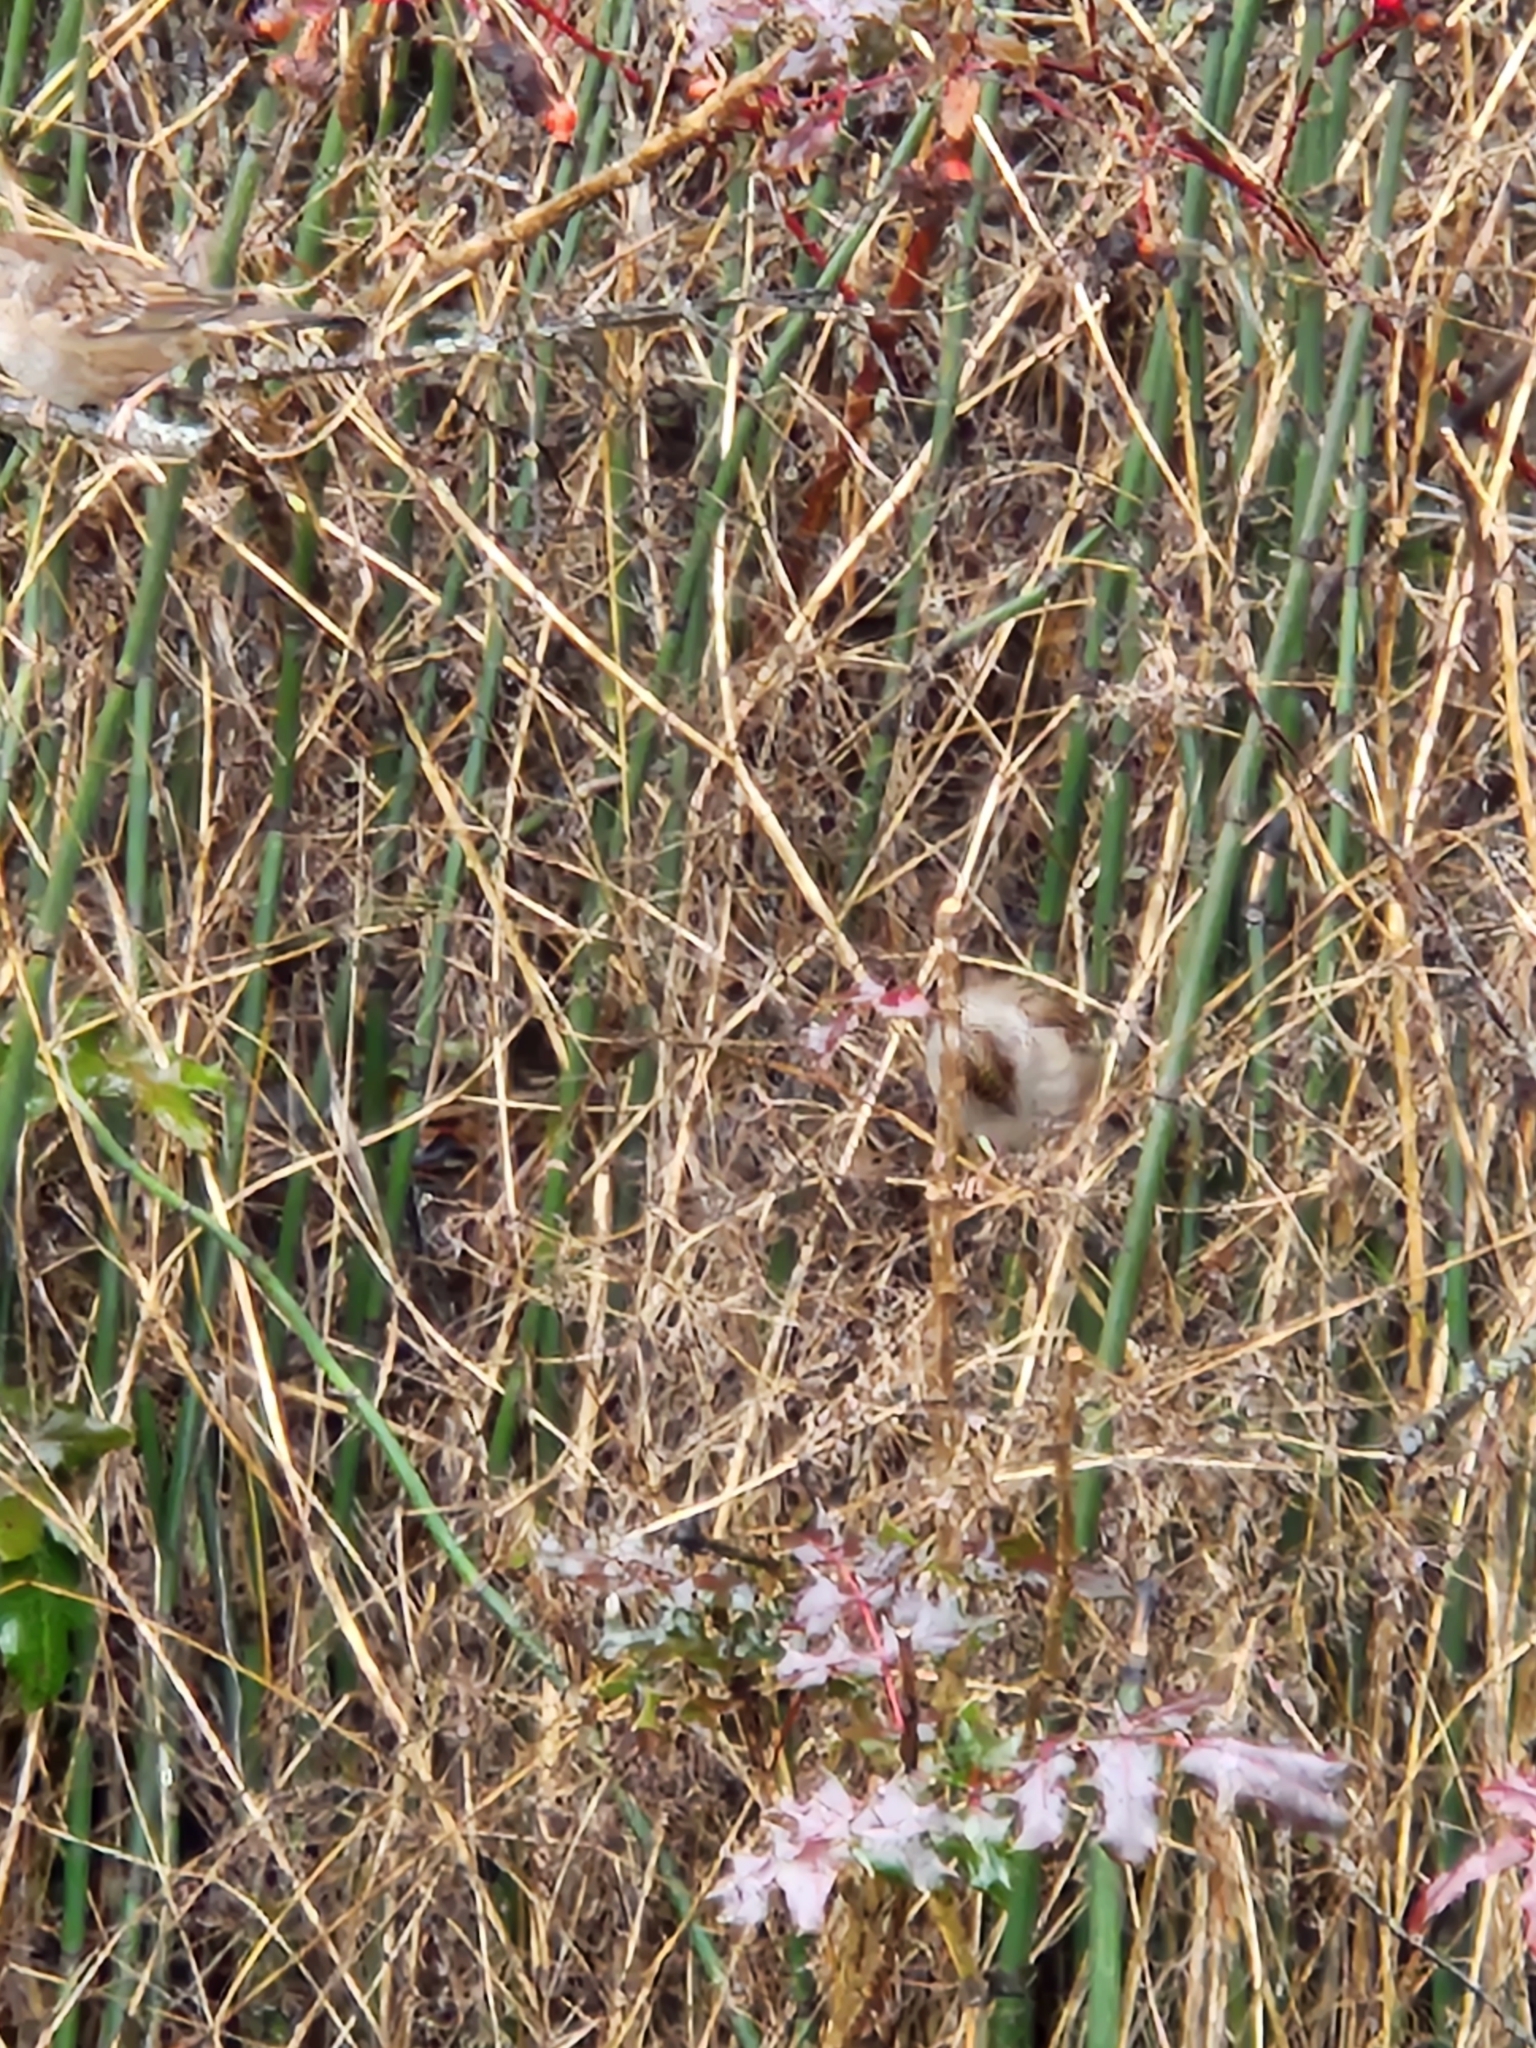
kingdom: Animalia
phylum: Chordata
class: Aves
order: Passeriformes
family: Passerellidae
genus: Zonotrichia
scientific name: Zonotrichia atricapilla
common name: Golden-crowned sparrow
